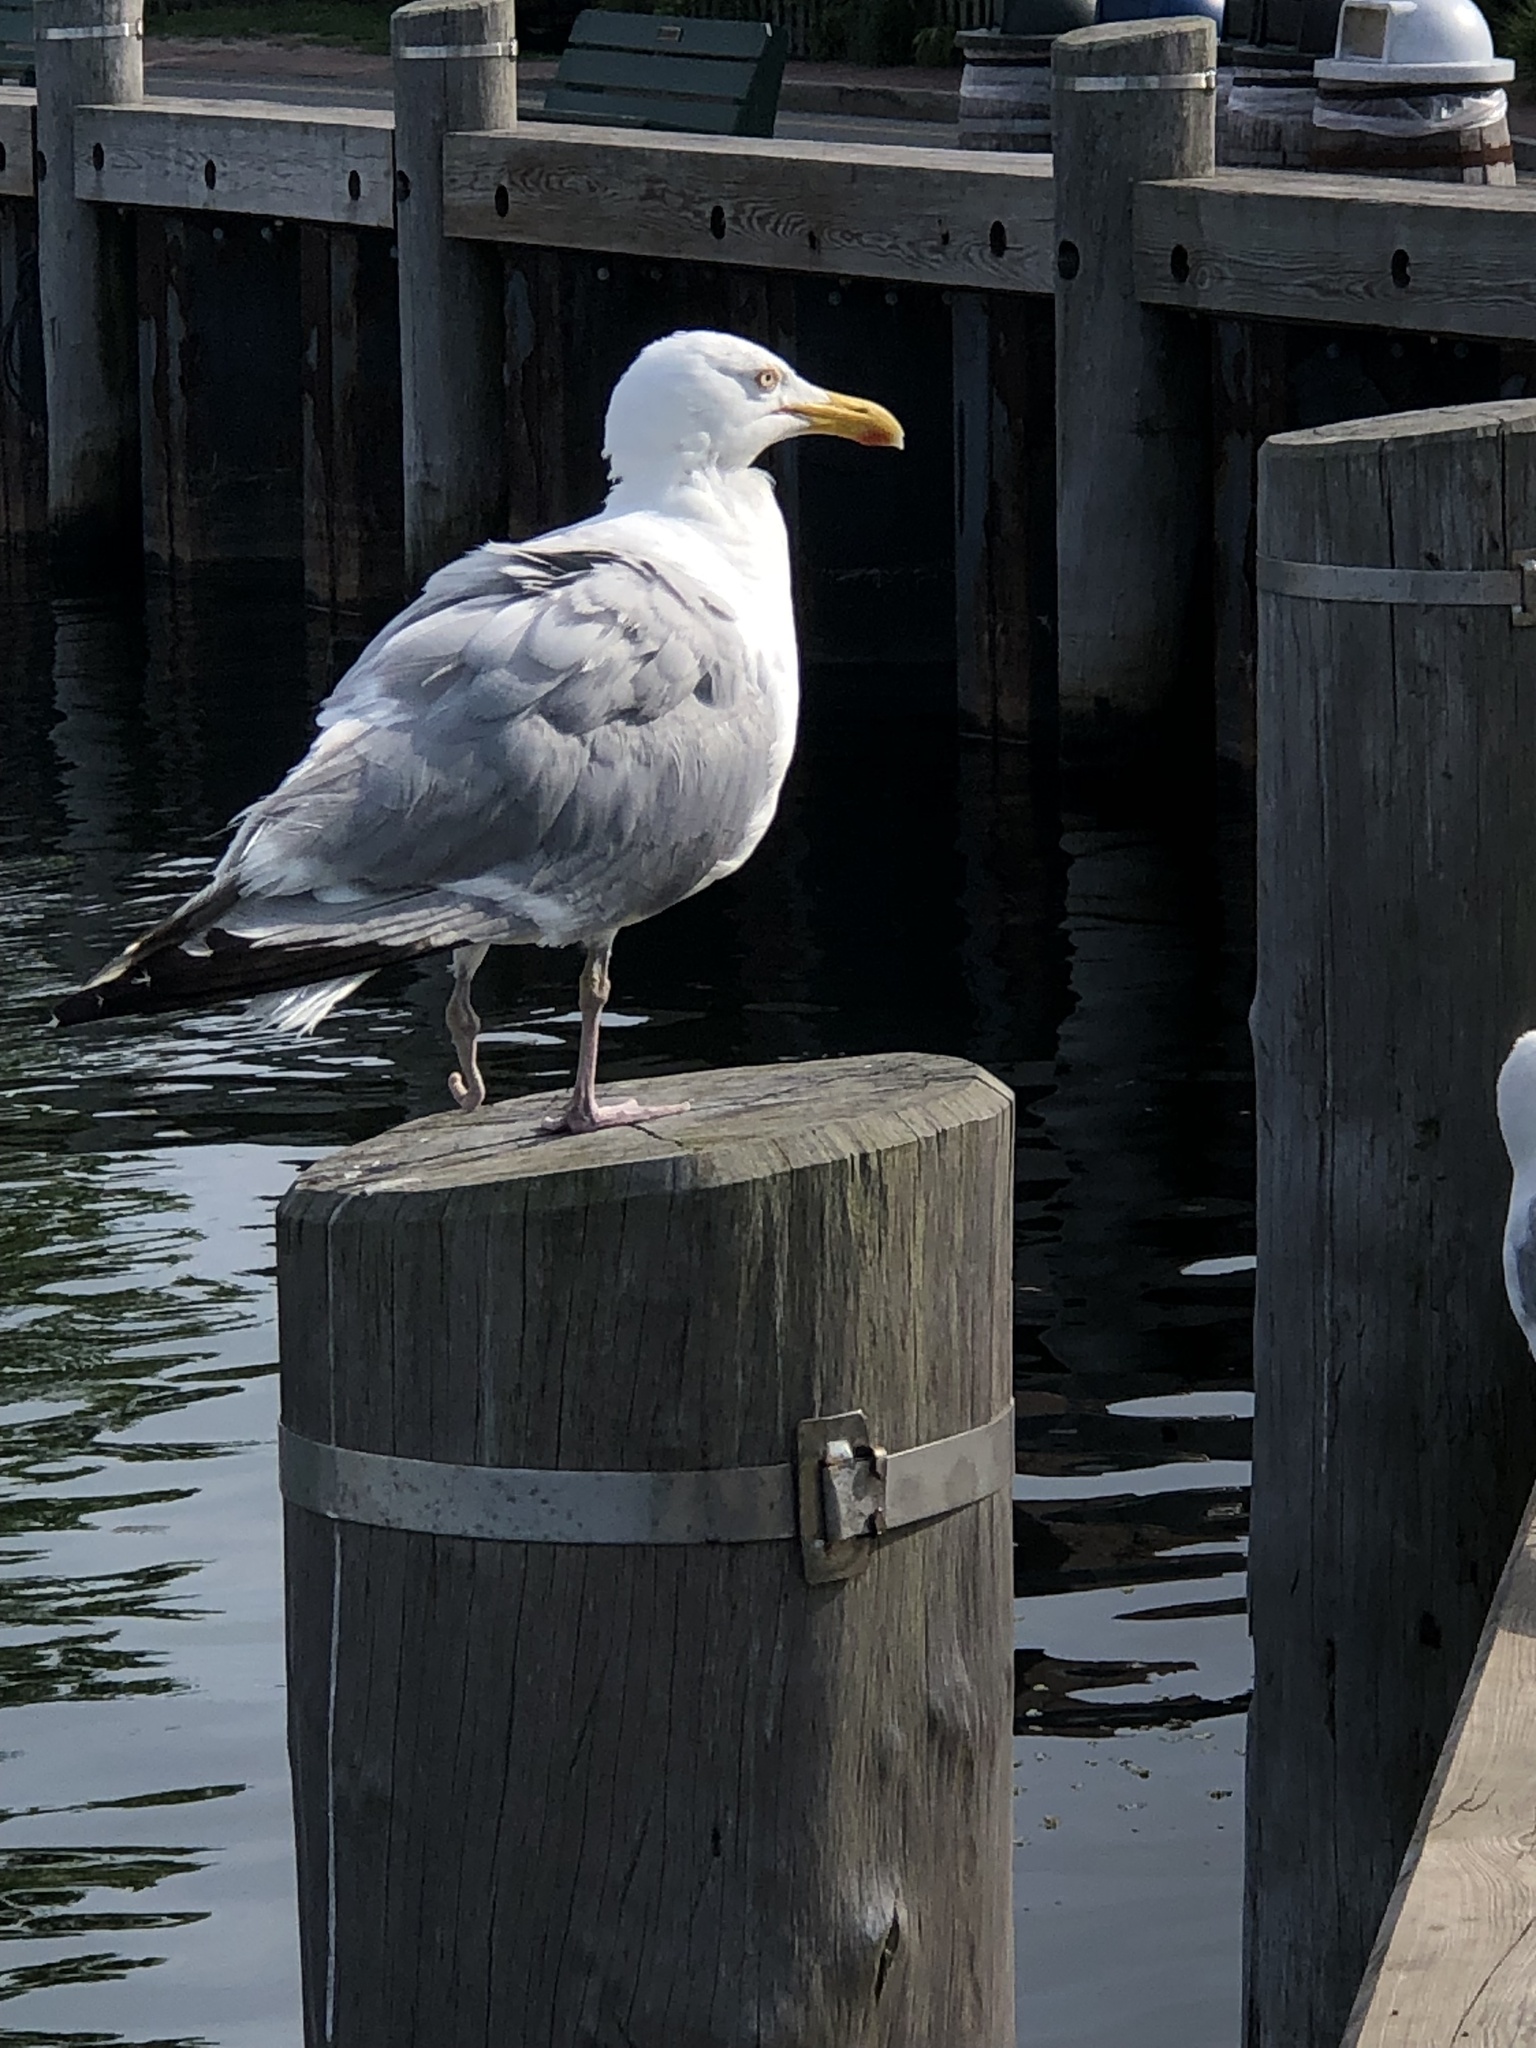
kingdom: Animalia
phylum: Chordata
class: Aves
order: Charadriiformes
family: Laridae
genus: Larus
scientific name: Larus argentatus
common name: Herring gull
